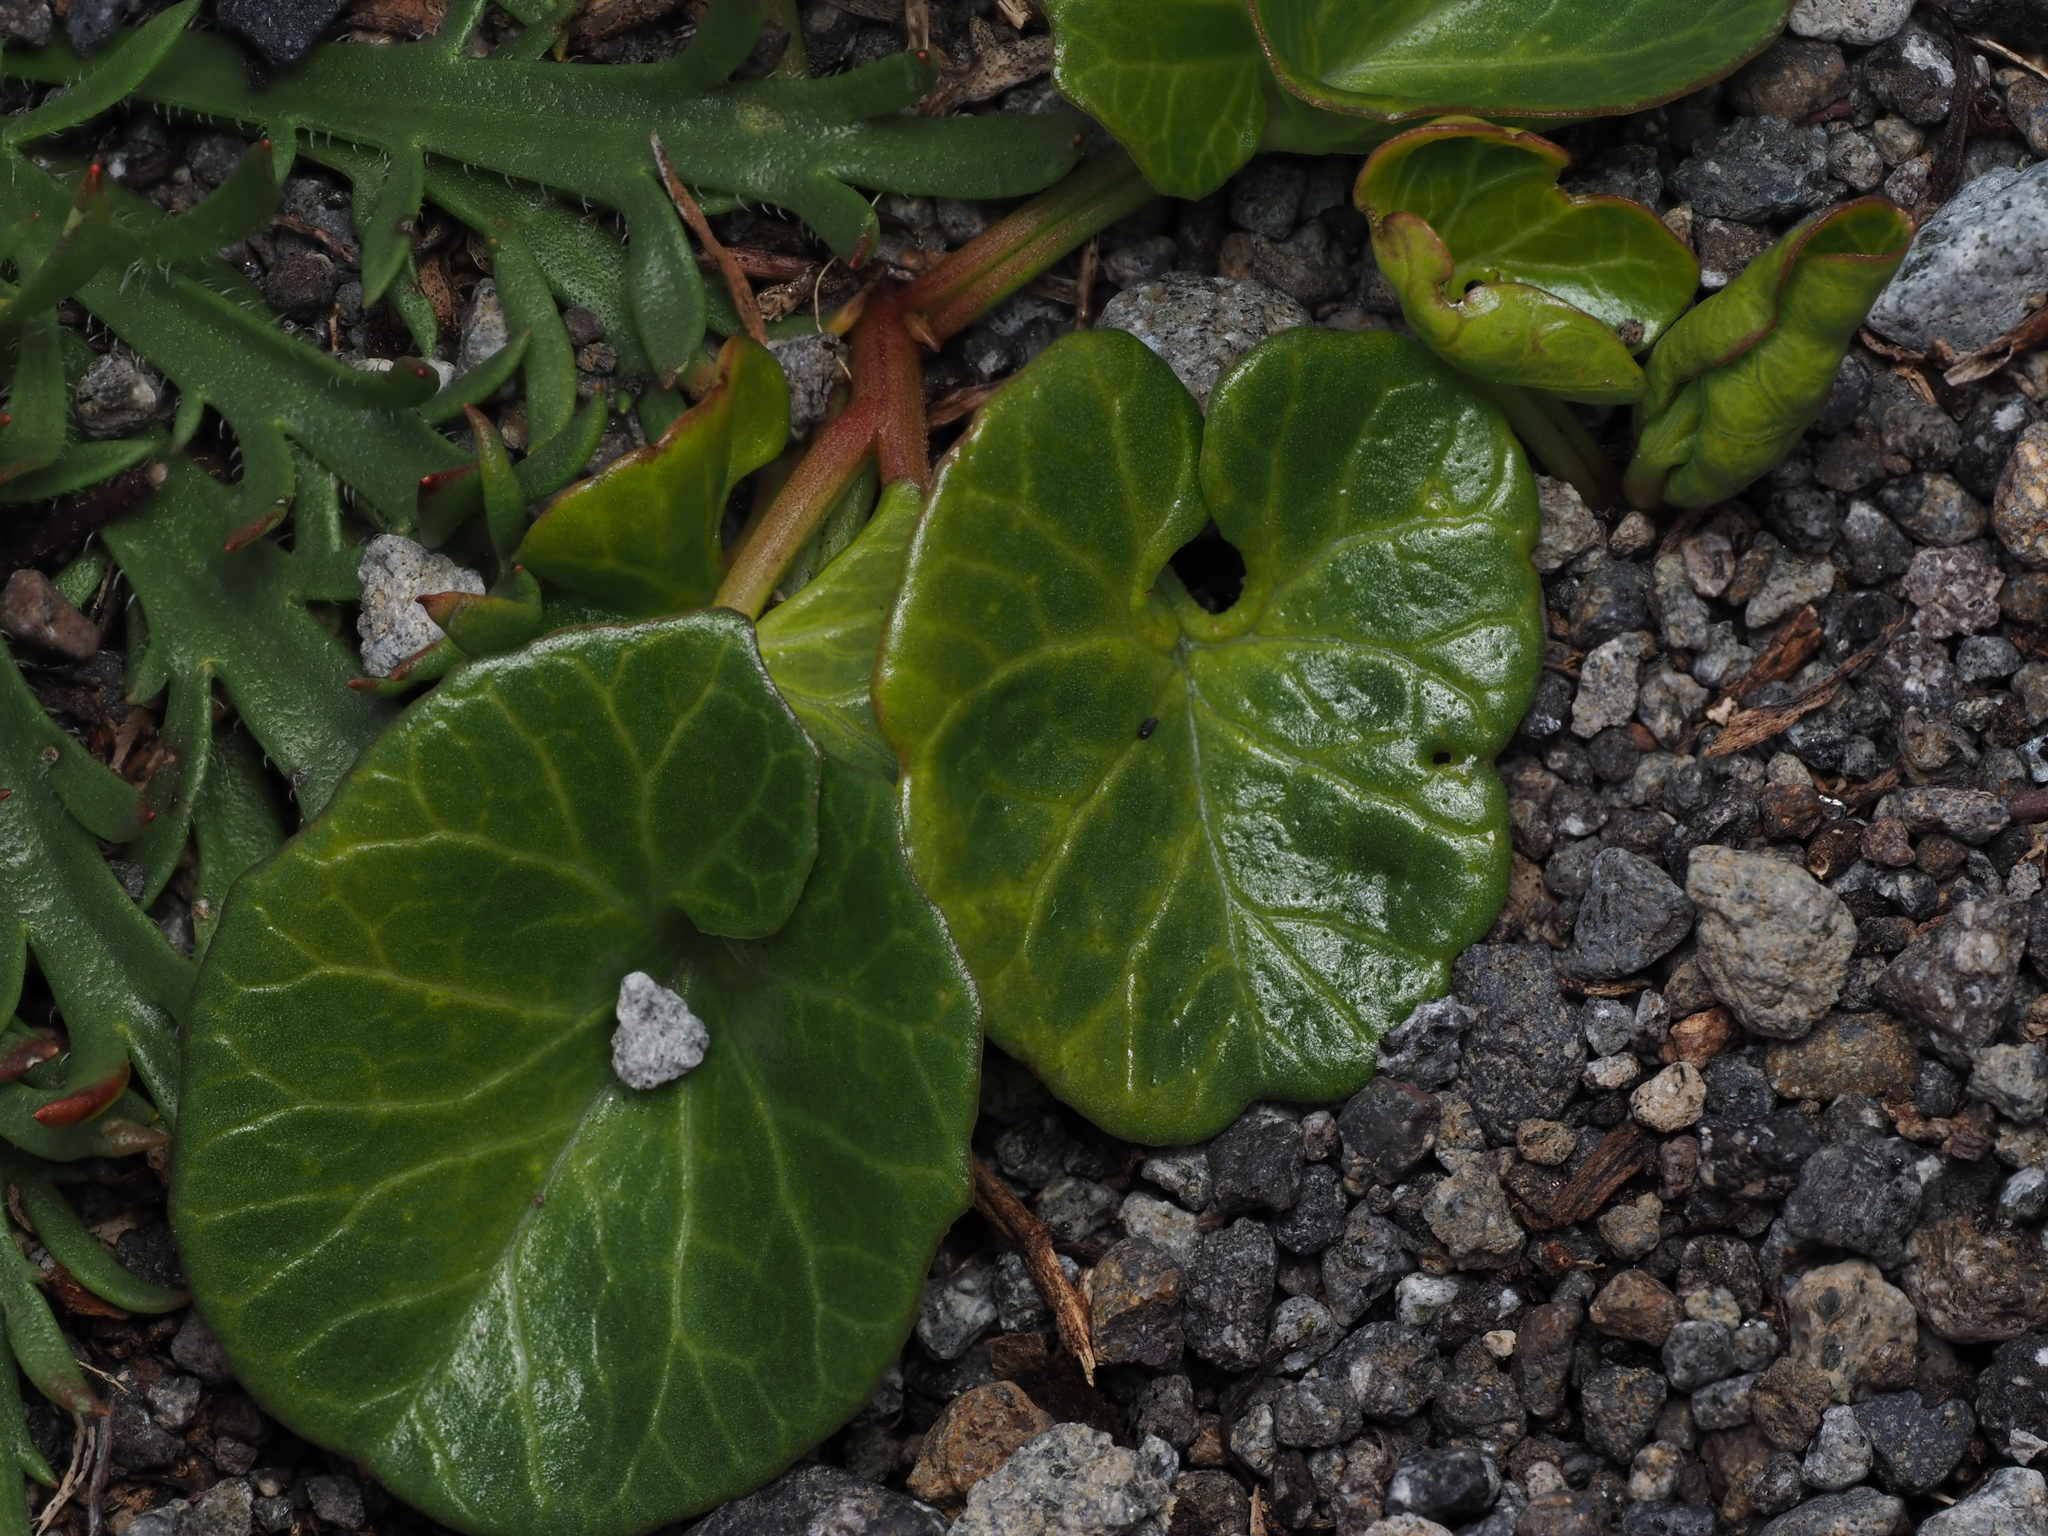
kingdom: Plantae
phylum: Tracheophyta
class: Magnoliopsida
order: Solanales
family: Convolvulaceae
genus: Calystegia
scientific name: Calystegia soldanella
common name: Sea bindweed
